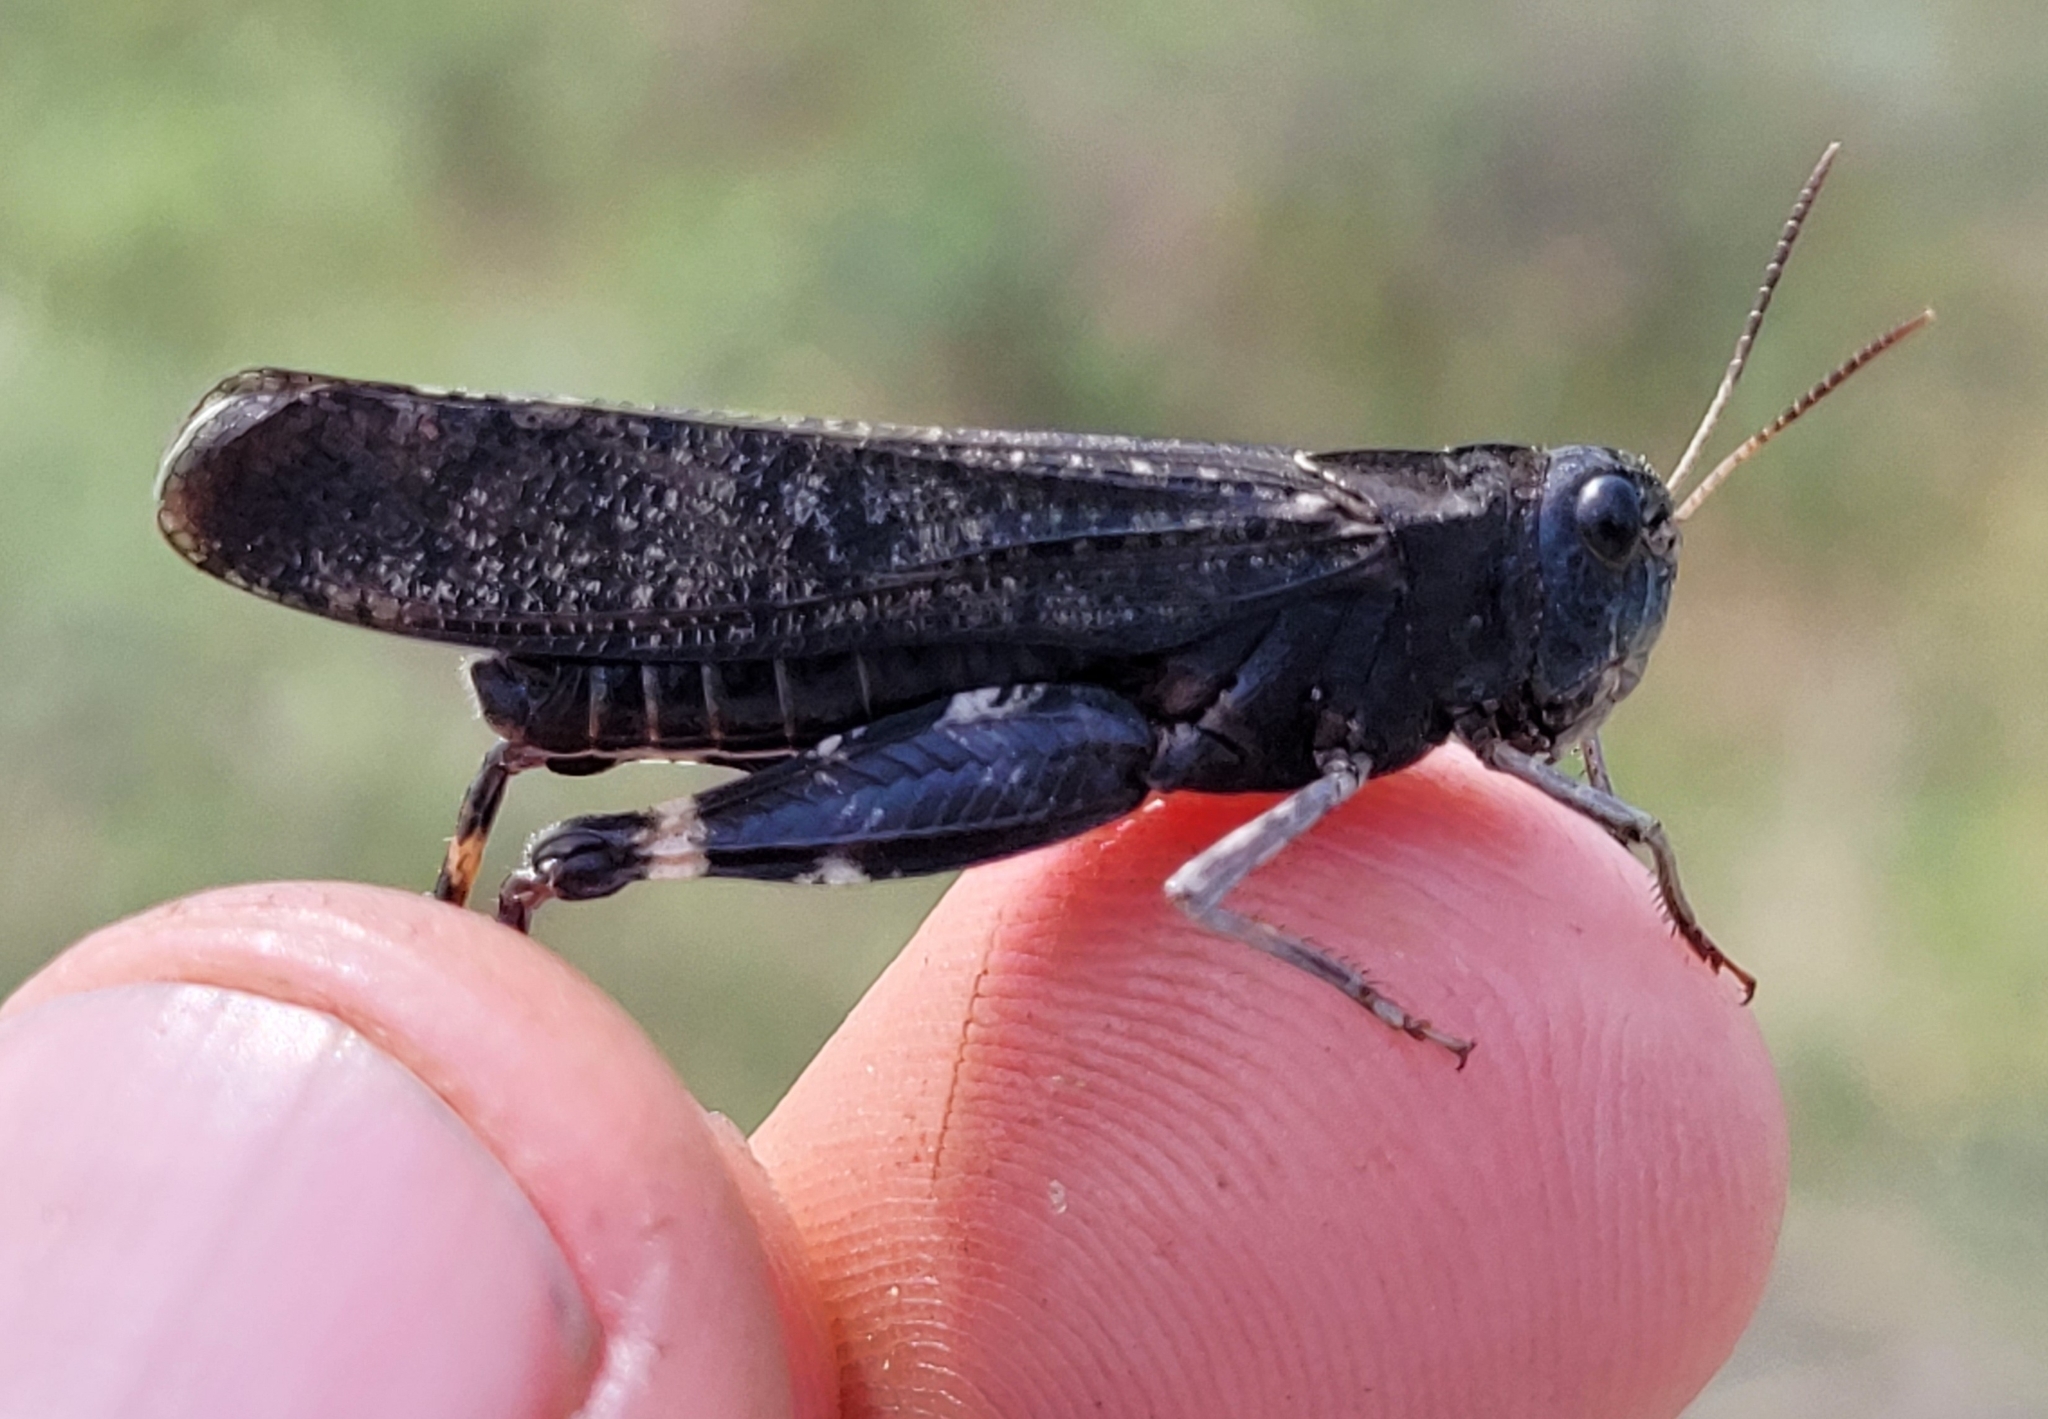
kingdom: Animalia
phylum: Arthropoda
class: Insecta
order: Orthoptera
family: Acrididae
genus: Arphia
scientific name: Arphia pseudo-nietana
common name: Red-winged grasshopper
